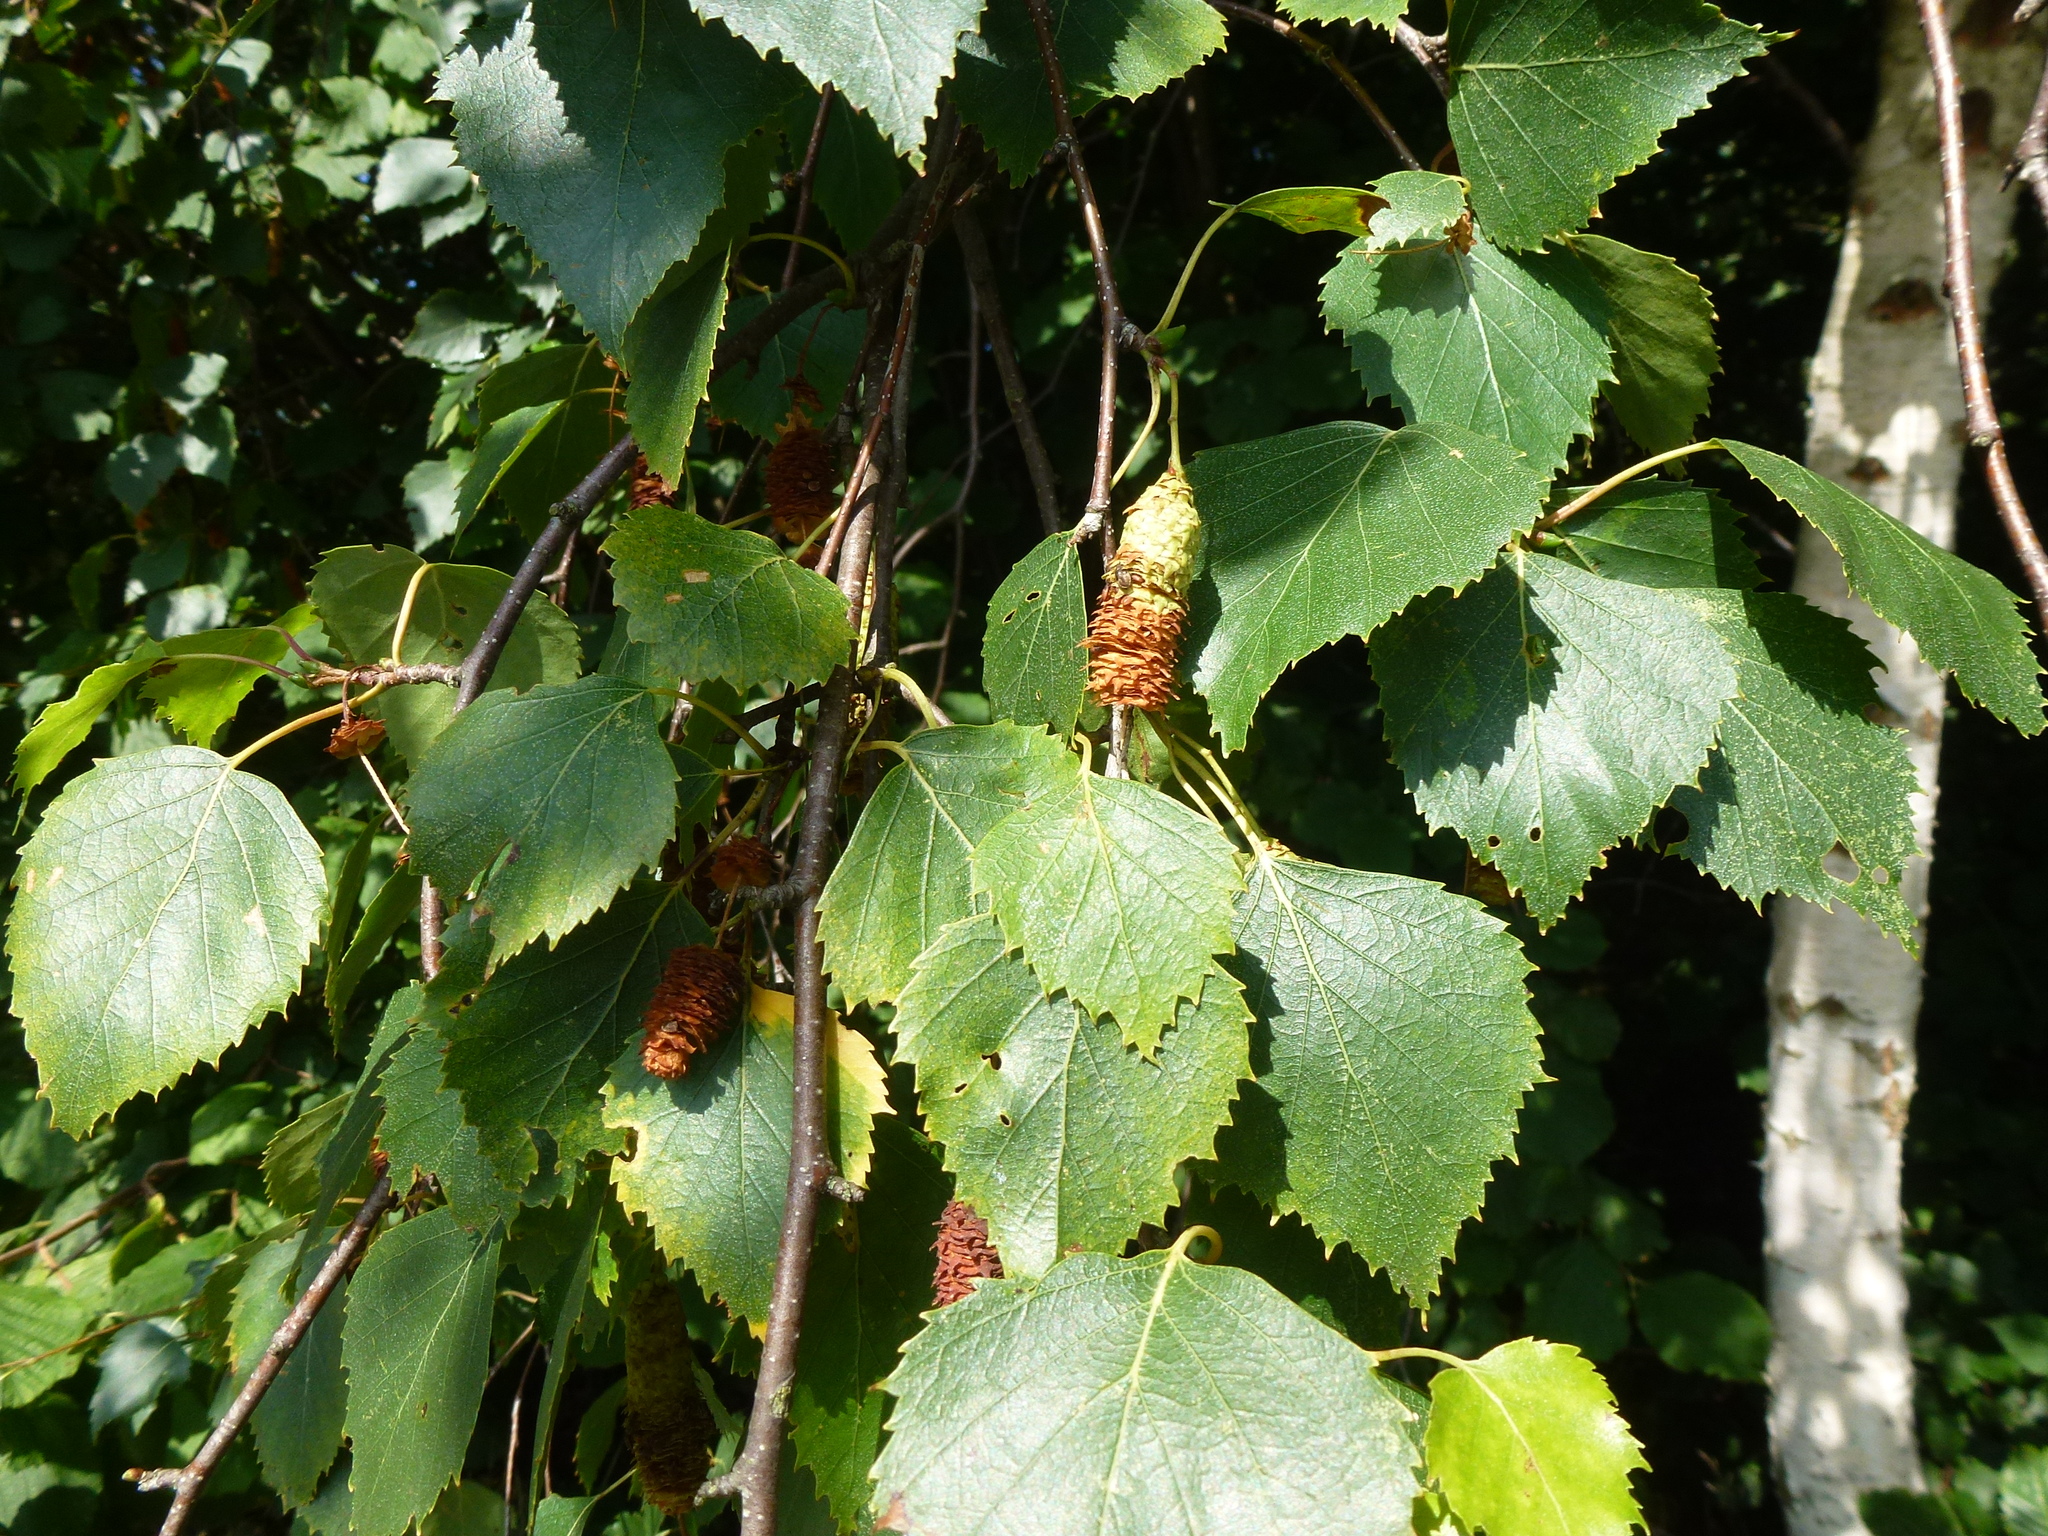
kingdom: Plantae
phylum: Tracheophyta
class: Magnoliopsida
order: Fagales
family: Betulaceae
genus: Betula
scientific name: Betula pendula
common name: Silver birch
